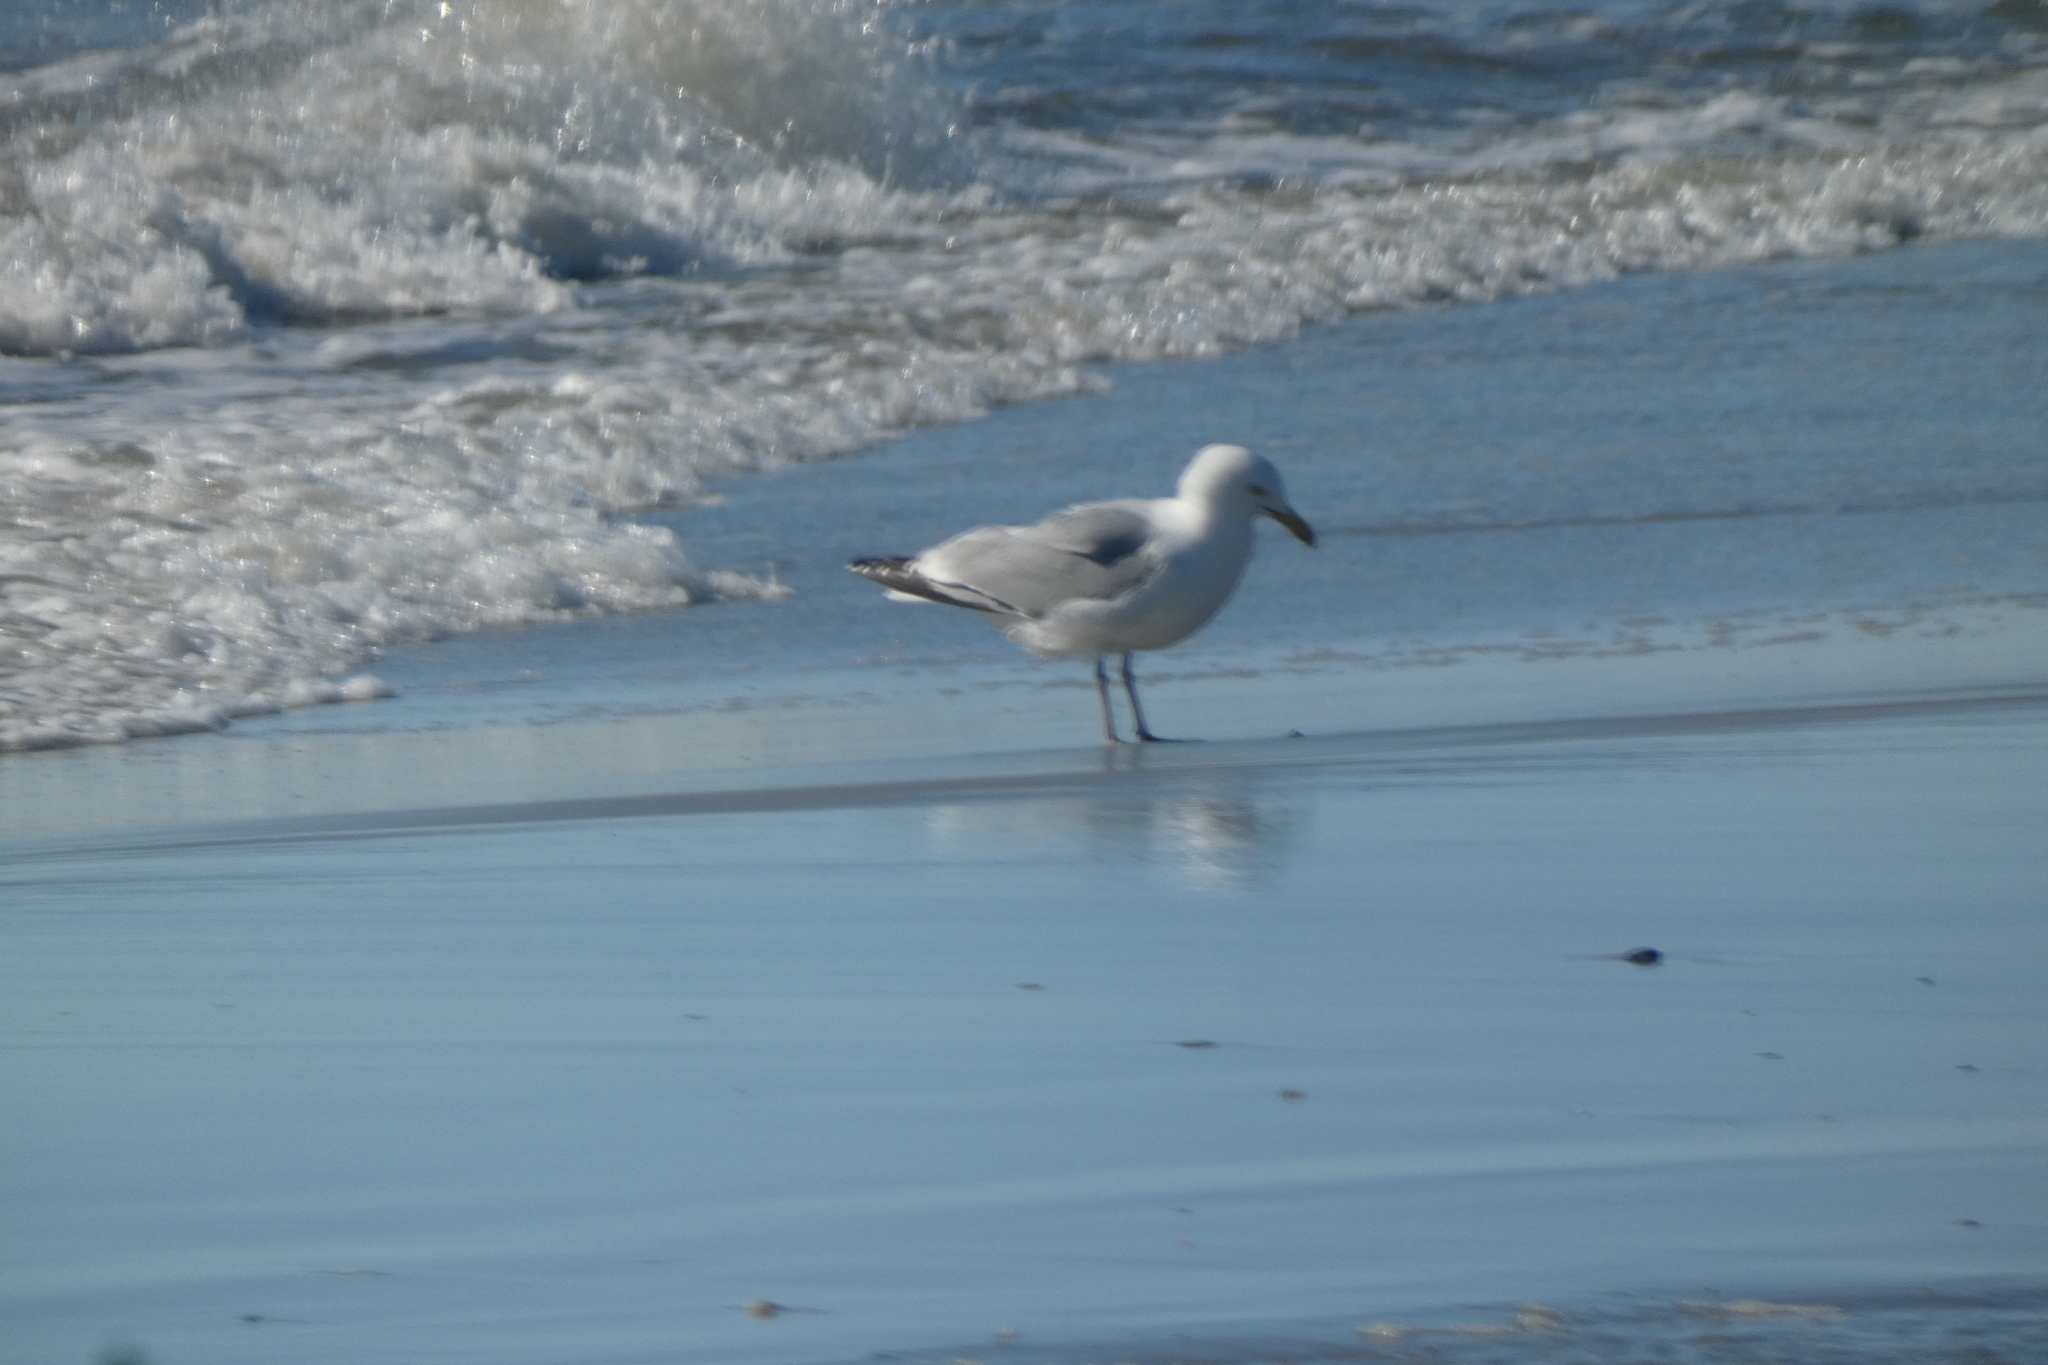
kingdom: Animalia
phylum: Chordata
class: Aves
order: Charadriiformes
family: Laridae
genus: Larus
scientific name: Larus argentatus
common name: Herring gull
